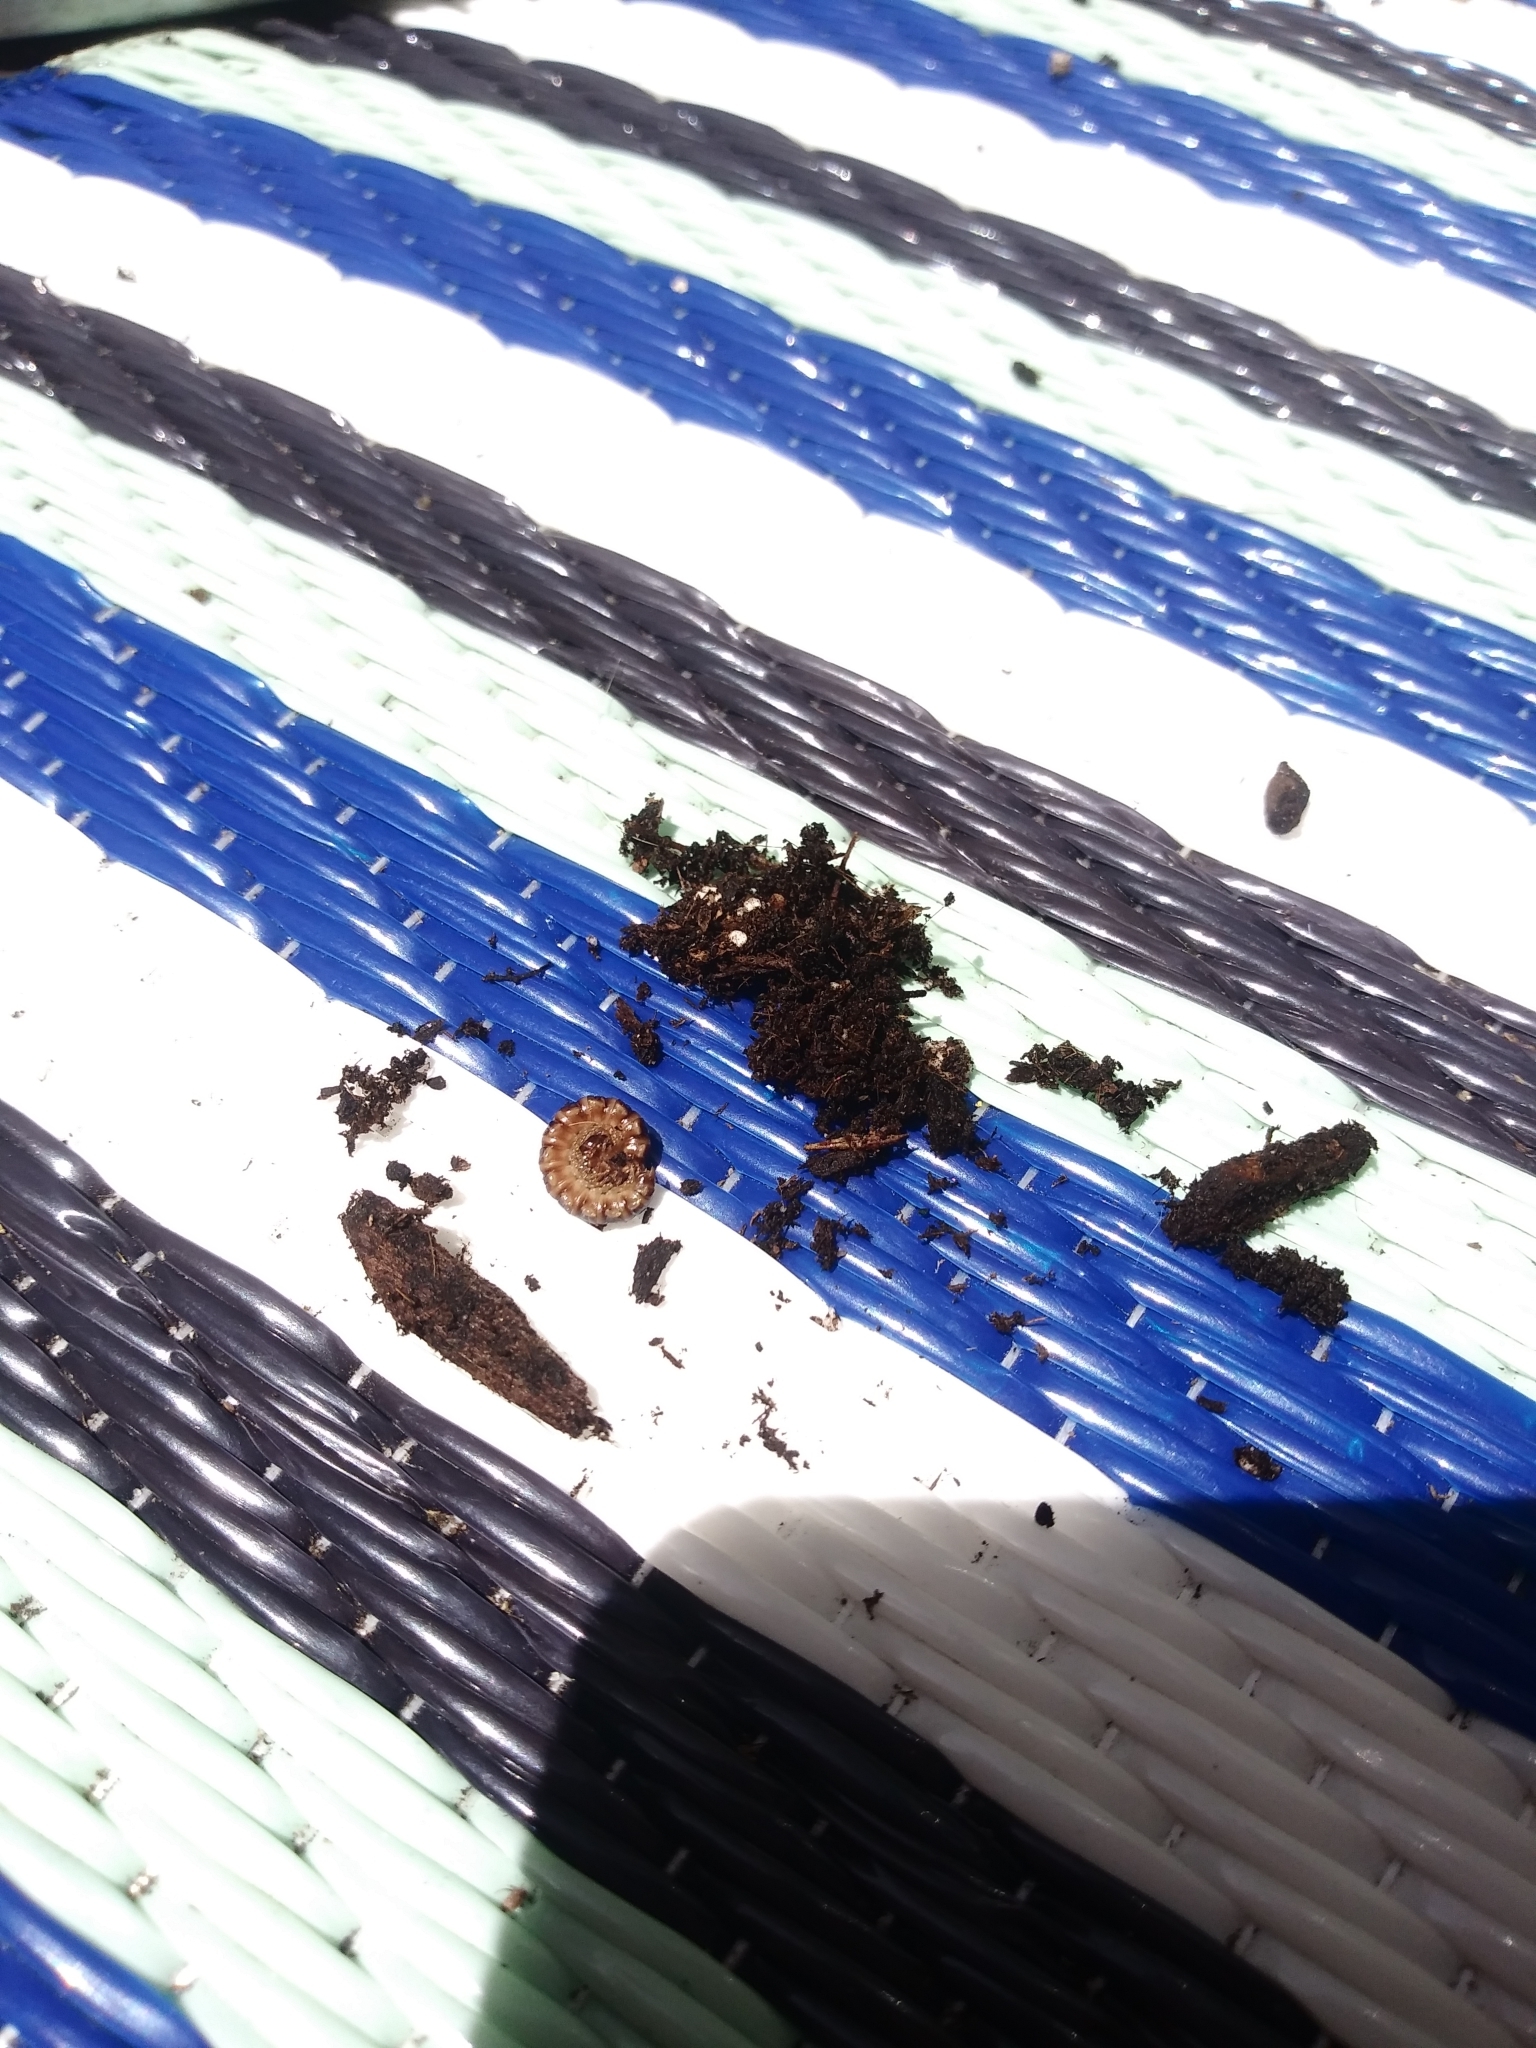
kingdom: Animalia
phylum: Arthropoda
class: Diplopoda
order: Polydesmida
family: Paradoxosomatidae
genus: Oxidus
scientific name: Oxidus gracilis
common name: Greenhouse millipede
